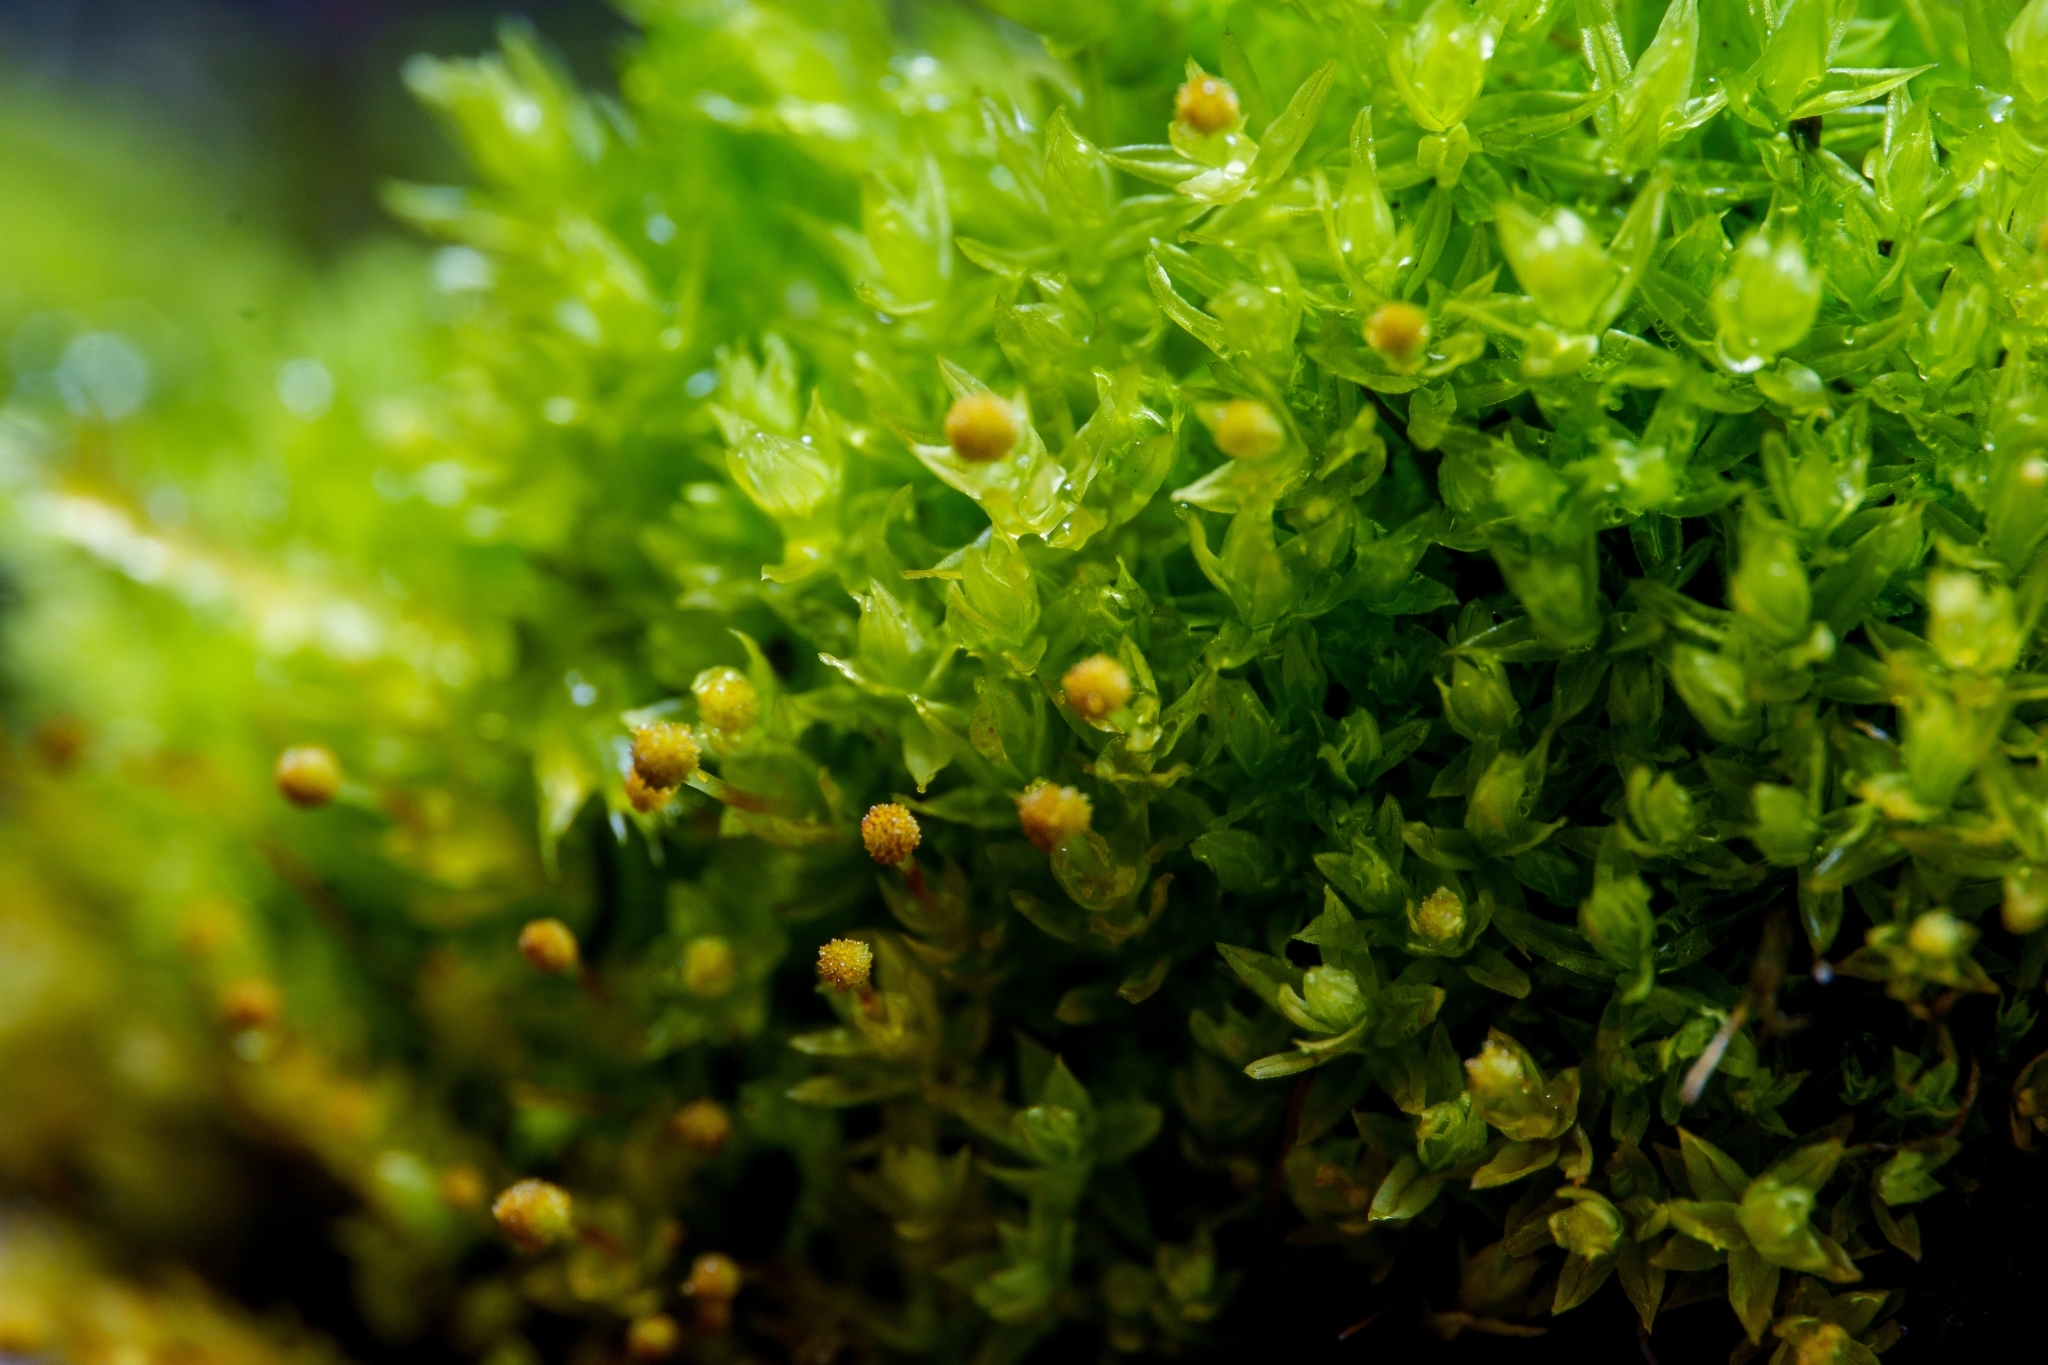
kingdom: Plantae
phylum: Bryophyta
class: Bryopsida
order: Aulacomniales
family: Aulacomniaceae
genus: Aulacomnium
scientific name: Aulacomnium androgynum
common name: Little groove moss
